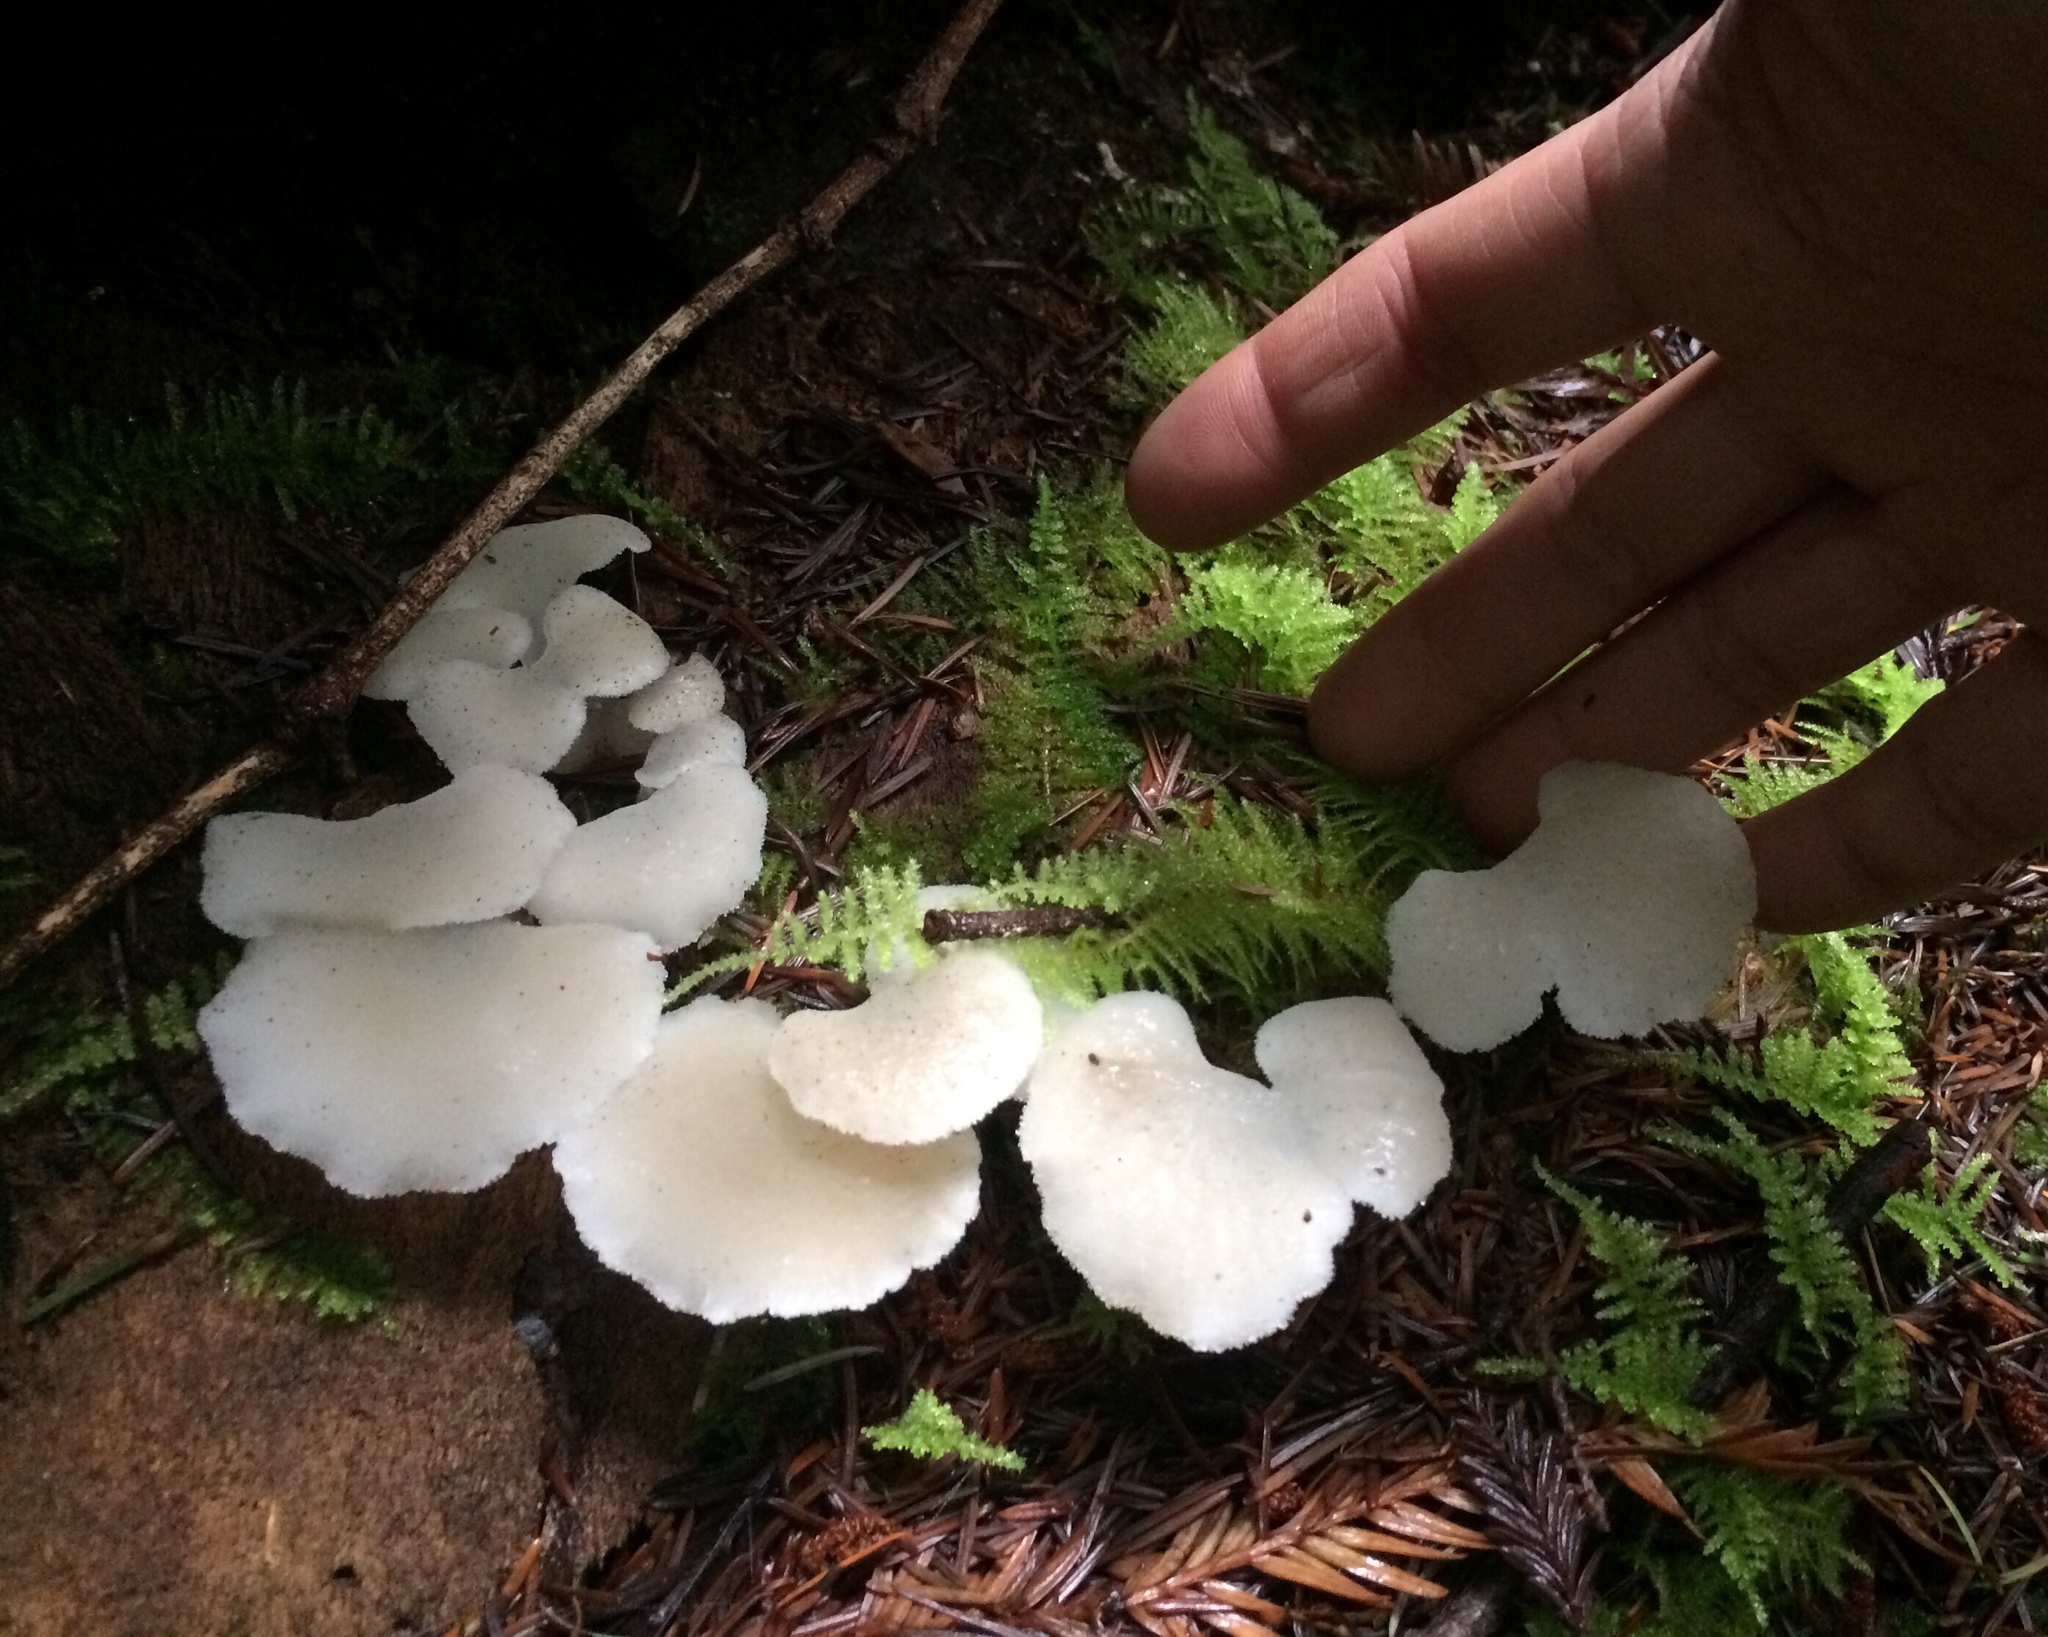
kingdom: Fungi
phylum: Basidiomycota
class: Agaricomycetes
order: Auriculariales
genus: Pseudohydnum
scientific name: Pseudohydnum gelatinosum
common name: Jelly tongue
